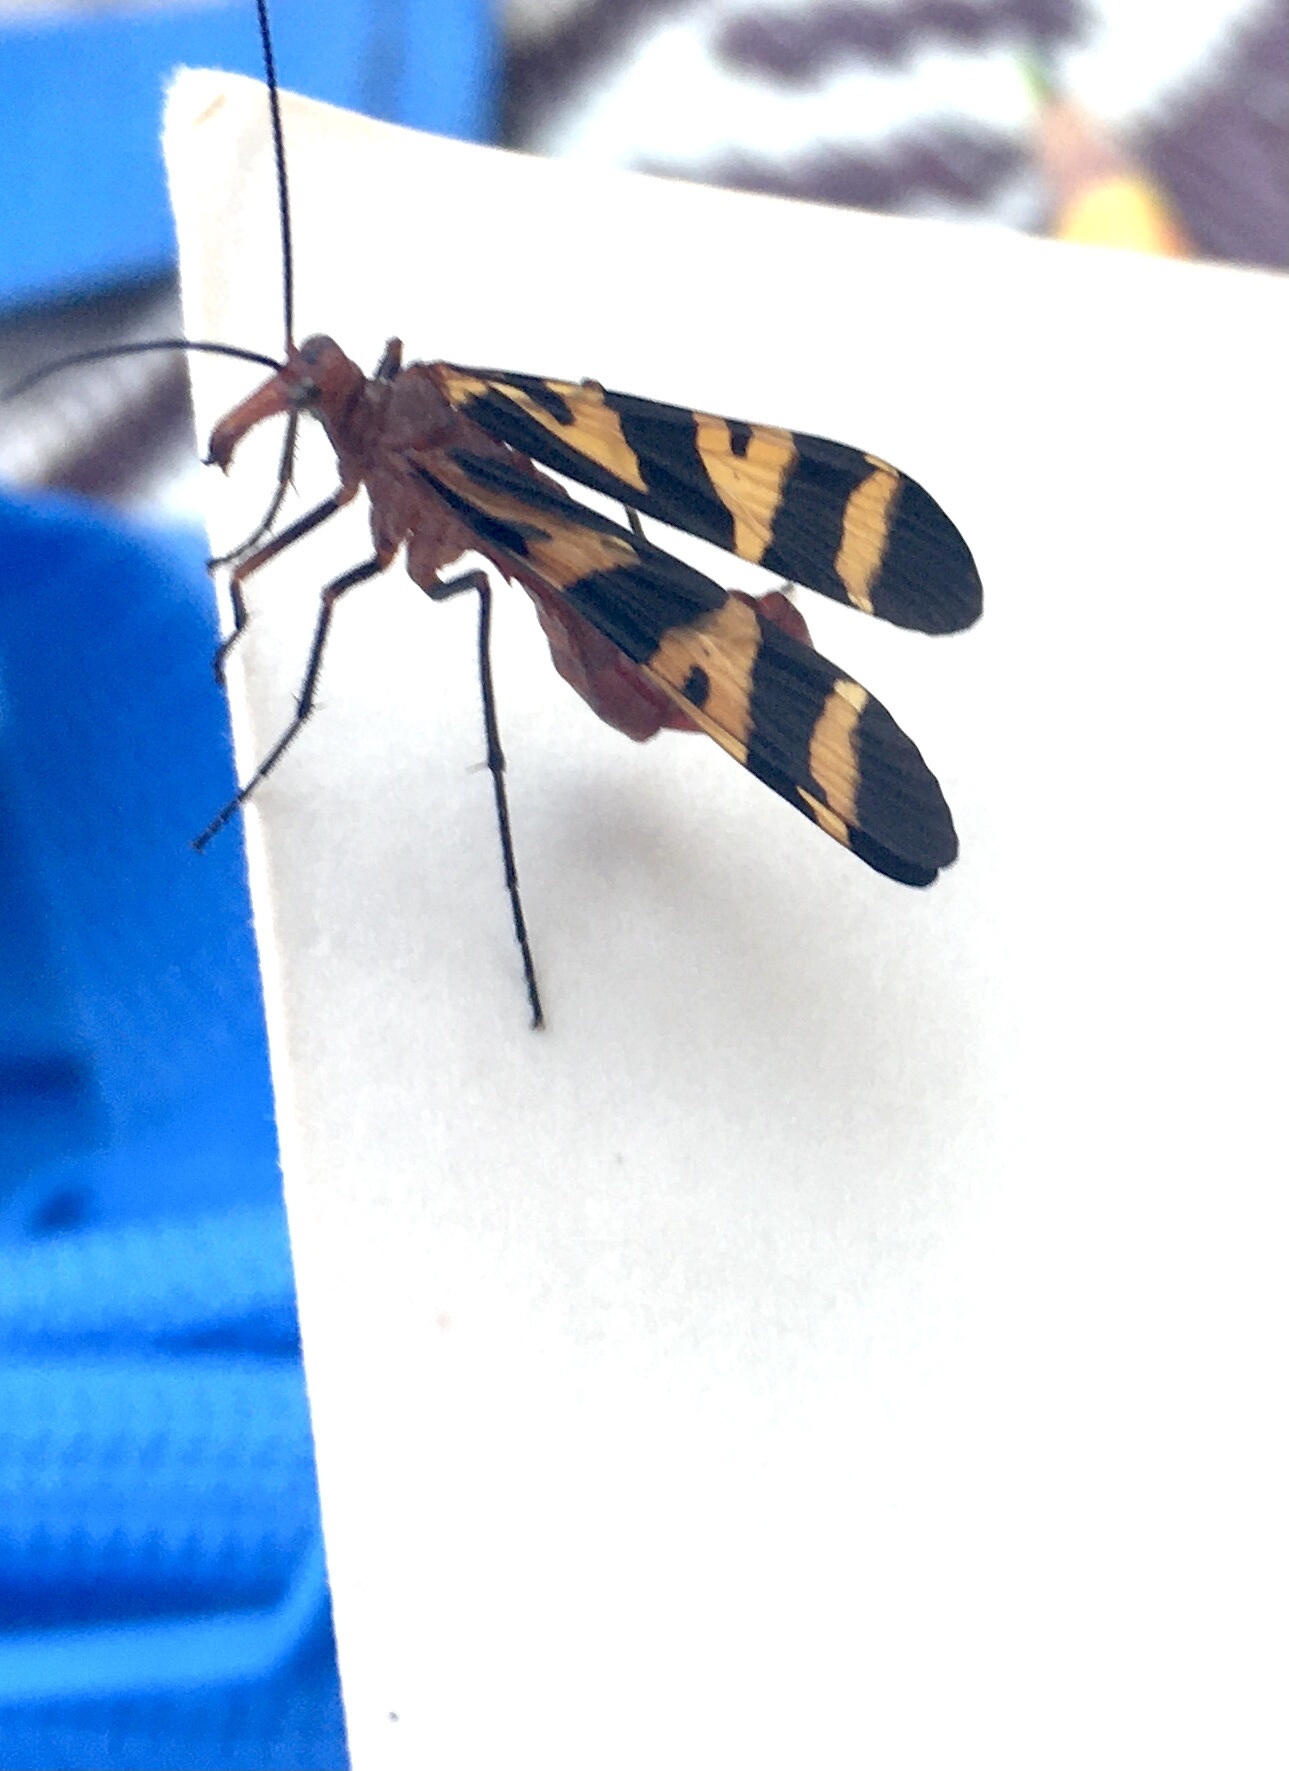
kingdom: Animalia
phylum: Arthropoda
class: Insecta
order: Mecoptera
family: Panorpidae
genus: Panorpa
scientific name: Panorpa nuptialis
